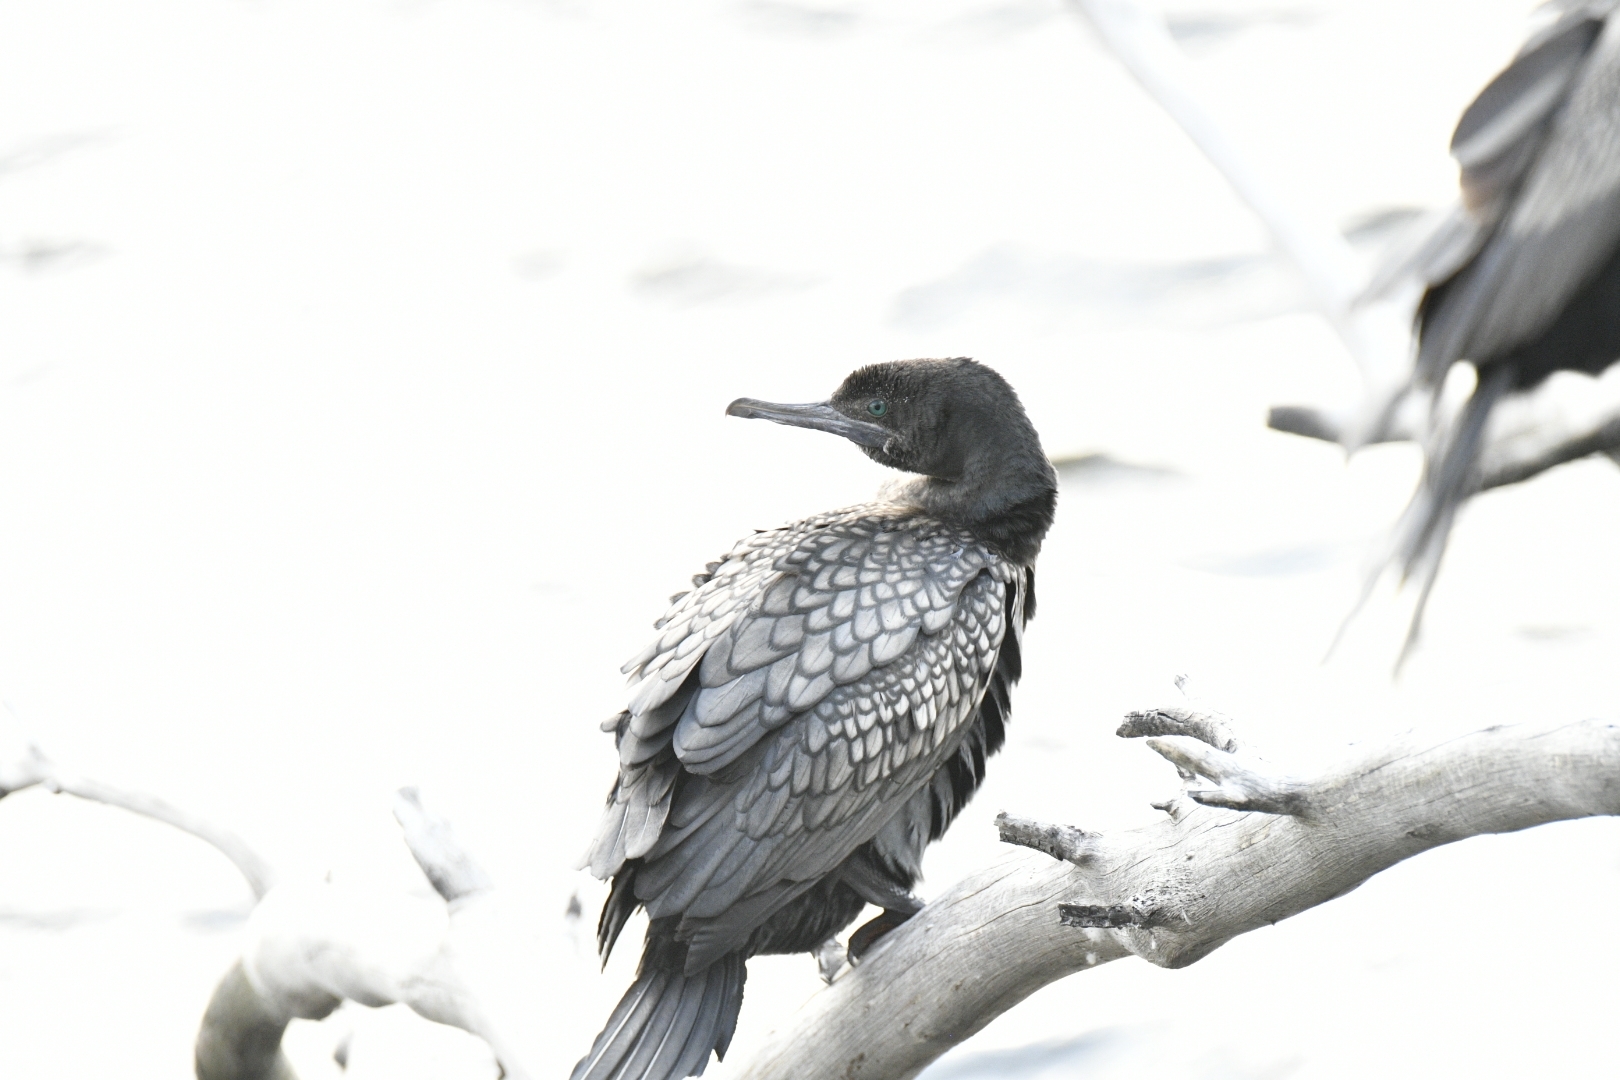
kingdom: Animalia
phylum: Chordata
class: Aves
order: Suliformes
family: Phalacrocoracidae
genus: Phalacrocorax
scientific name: Phalacrocorax sulcirostris
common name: Little black cormorant
